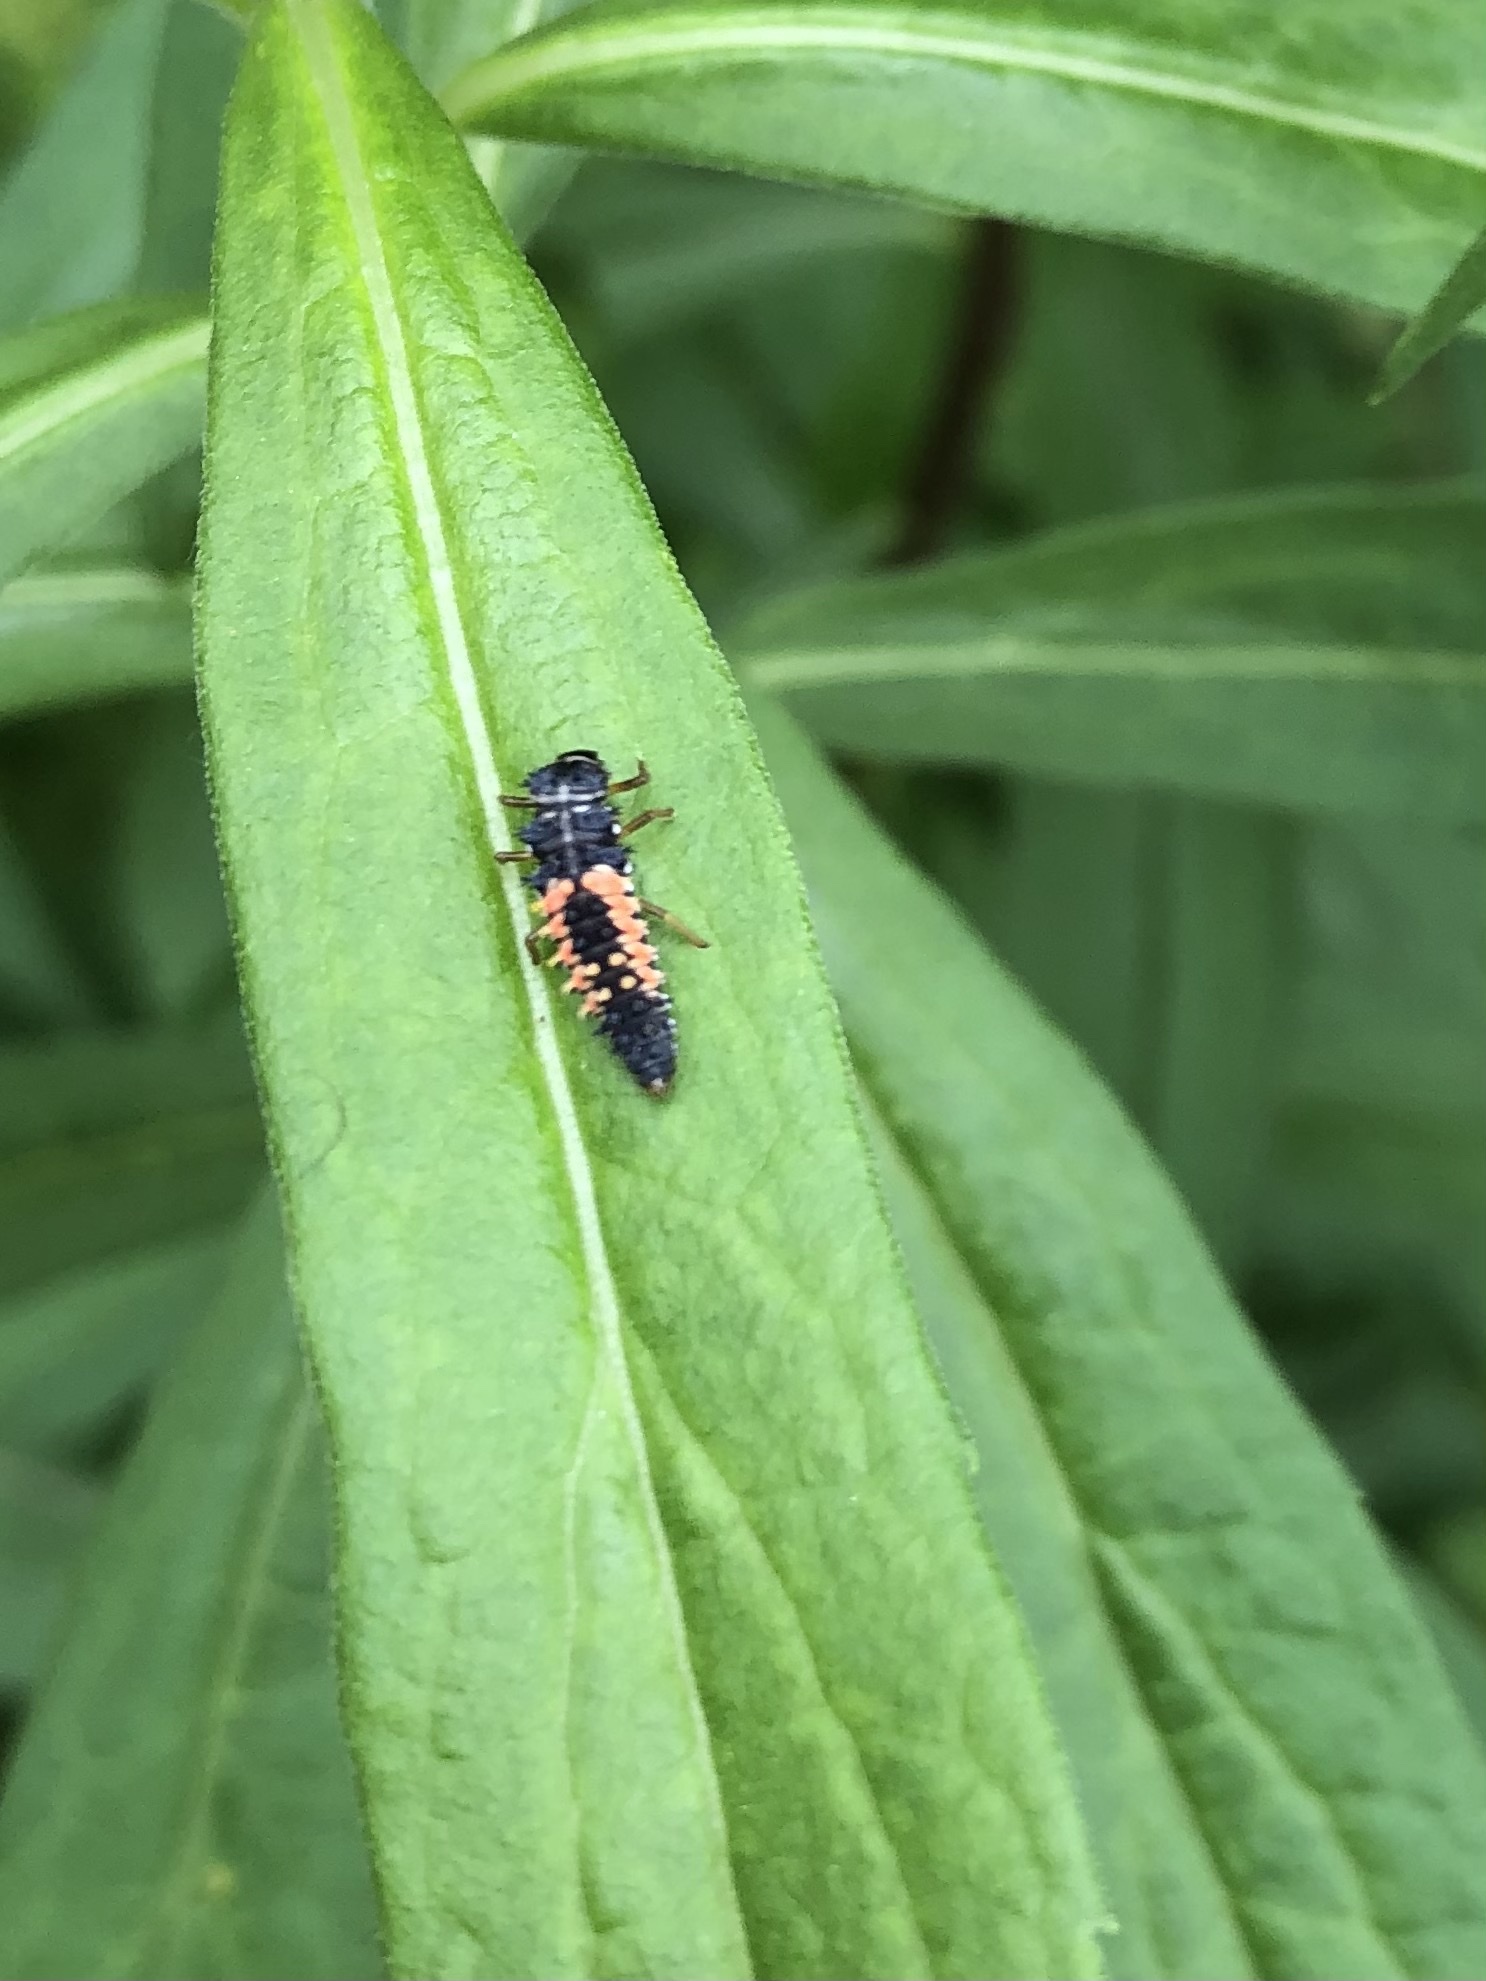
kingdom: Animalia
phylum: Arthropoda
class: Insecta
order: Coleoptera
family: Coccinellidae
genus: Harmonia
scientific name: Harmonia axyridis
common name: Harlequin ladybird
